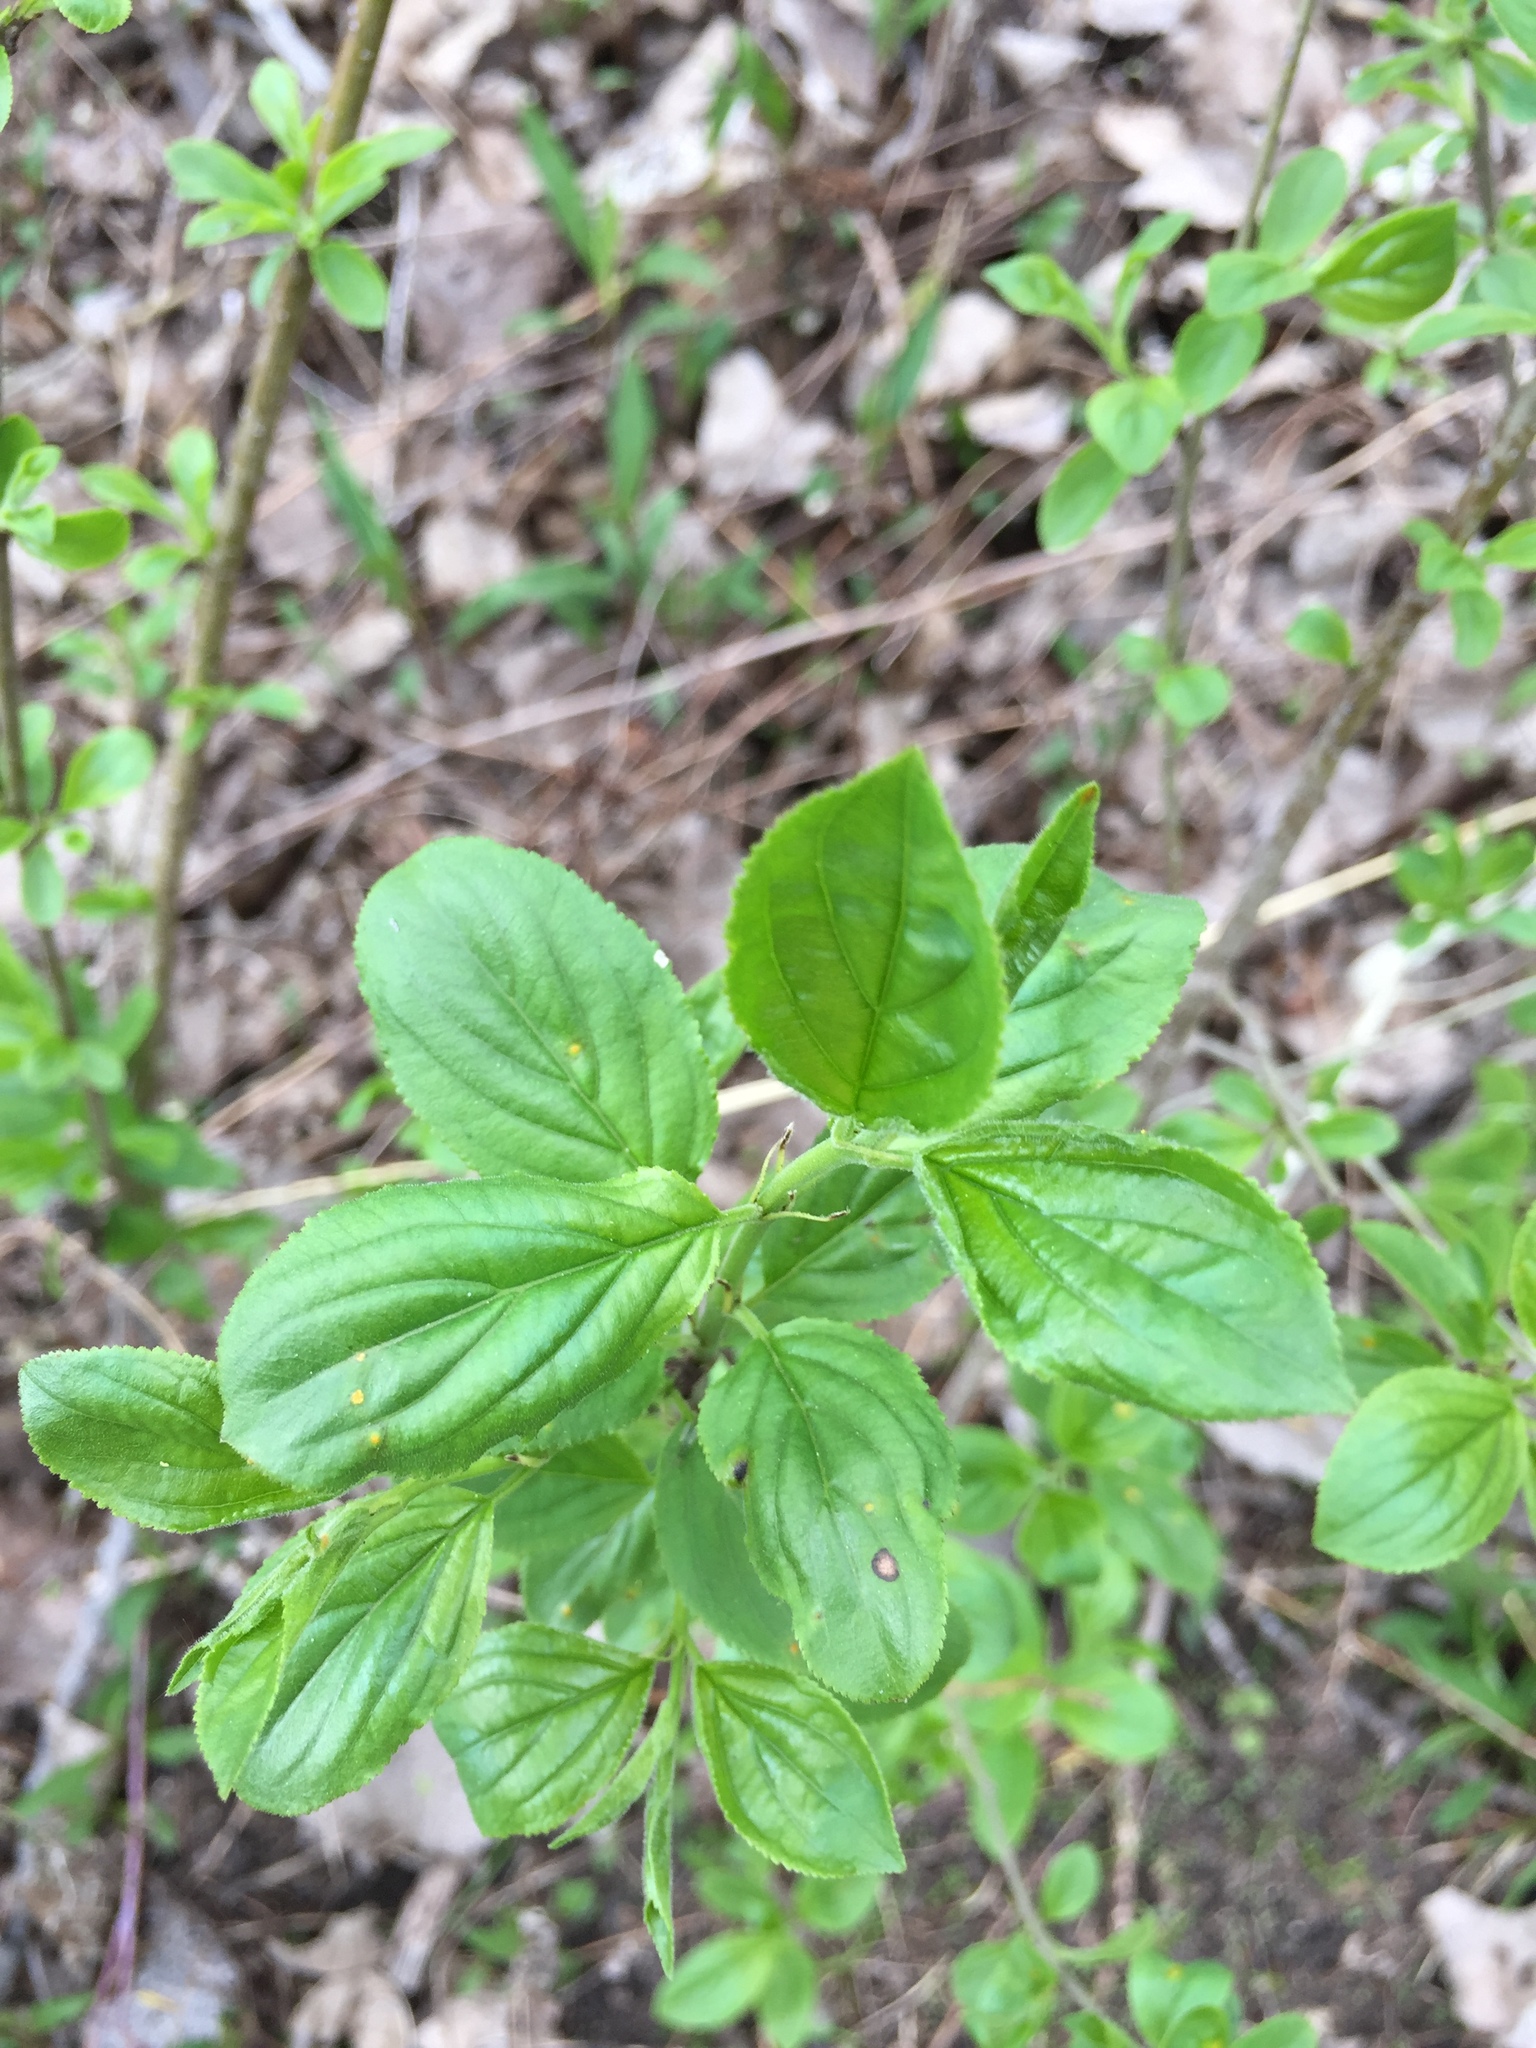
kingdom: Plantae
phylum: Tracheophyta
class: Magnoliopsida
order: Rosales
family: Rhamnaceae
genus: Rhamnus
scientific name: Rhamnus cathartica
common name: Common buckthorn
